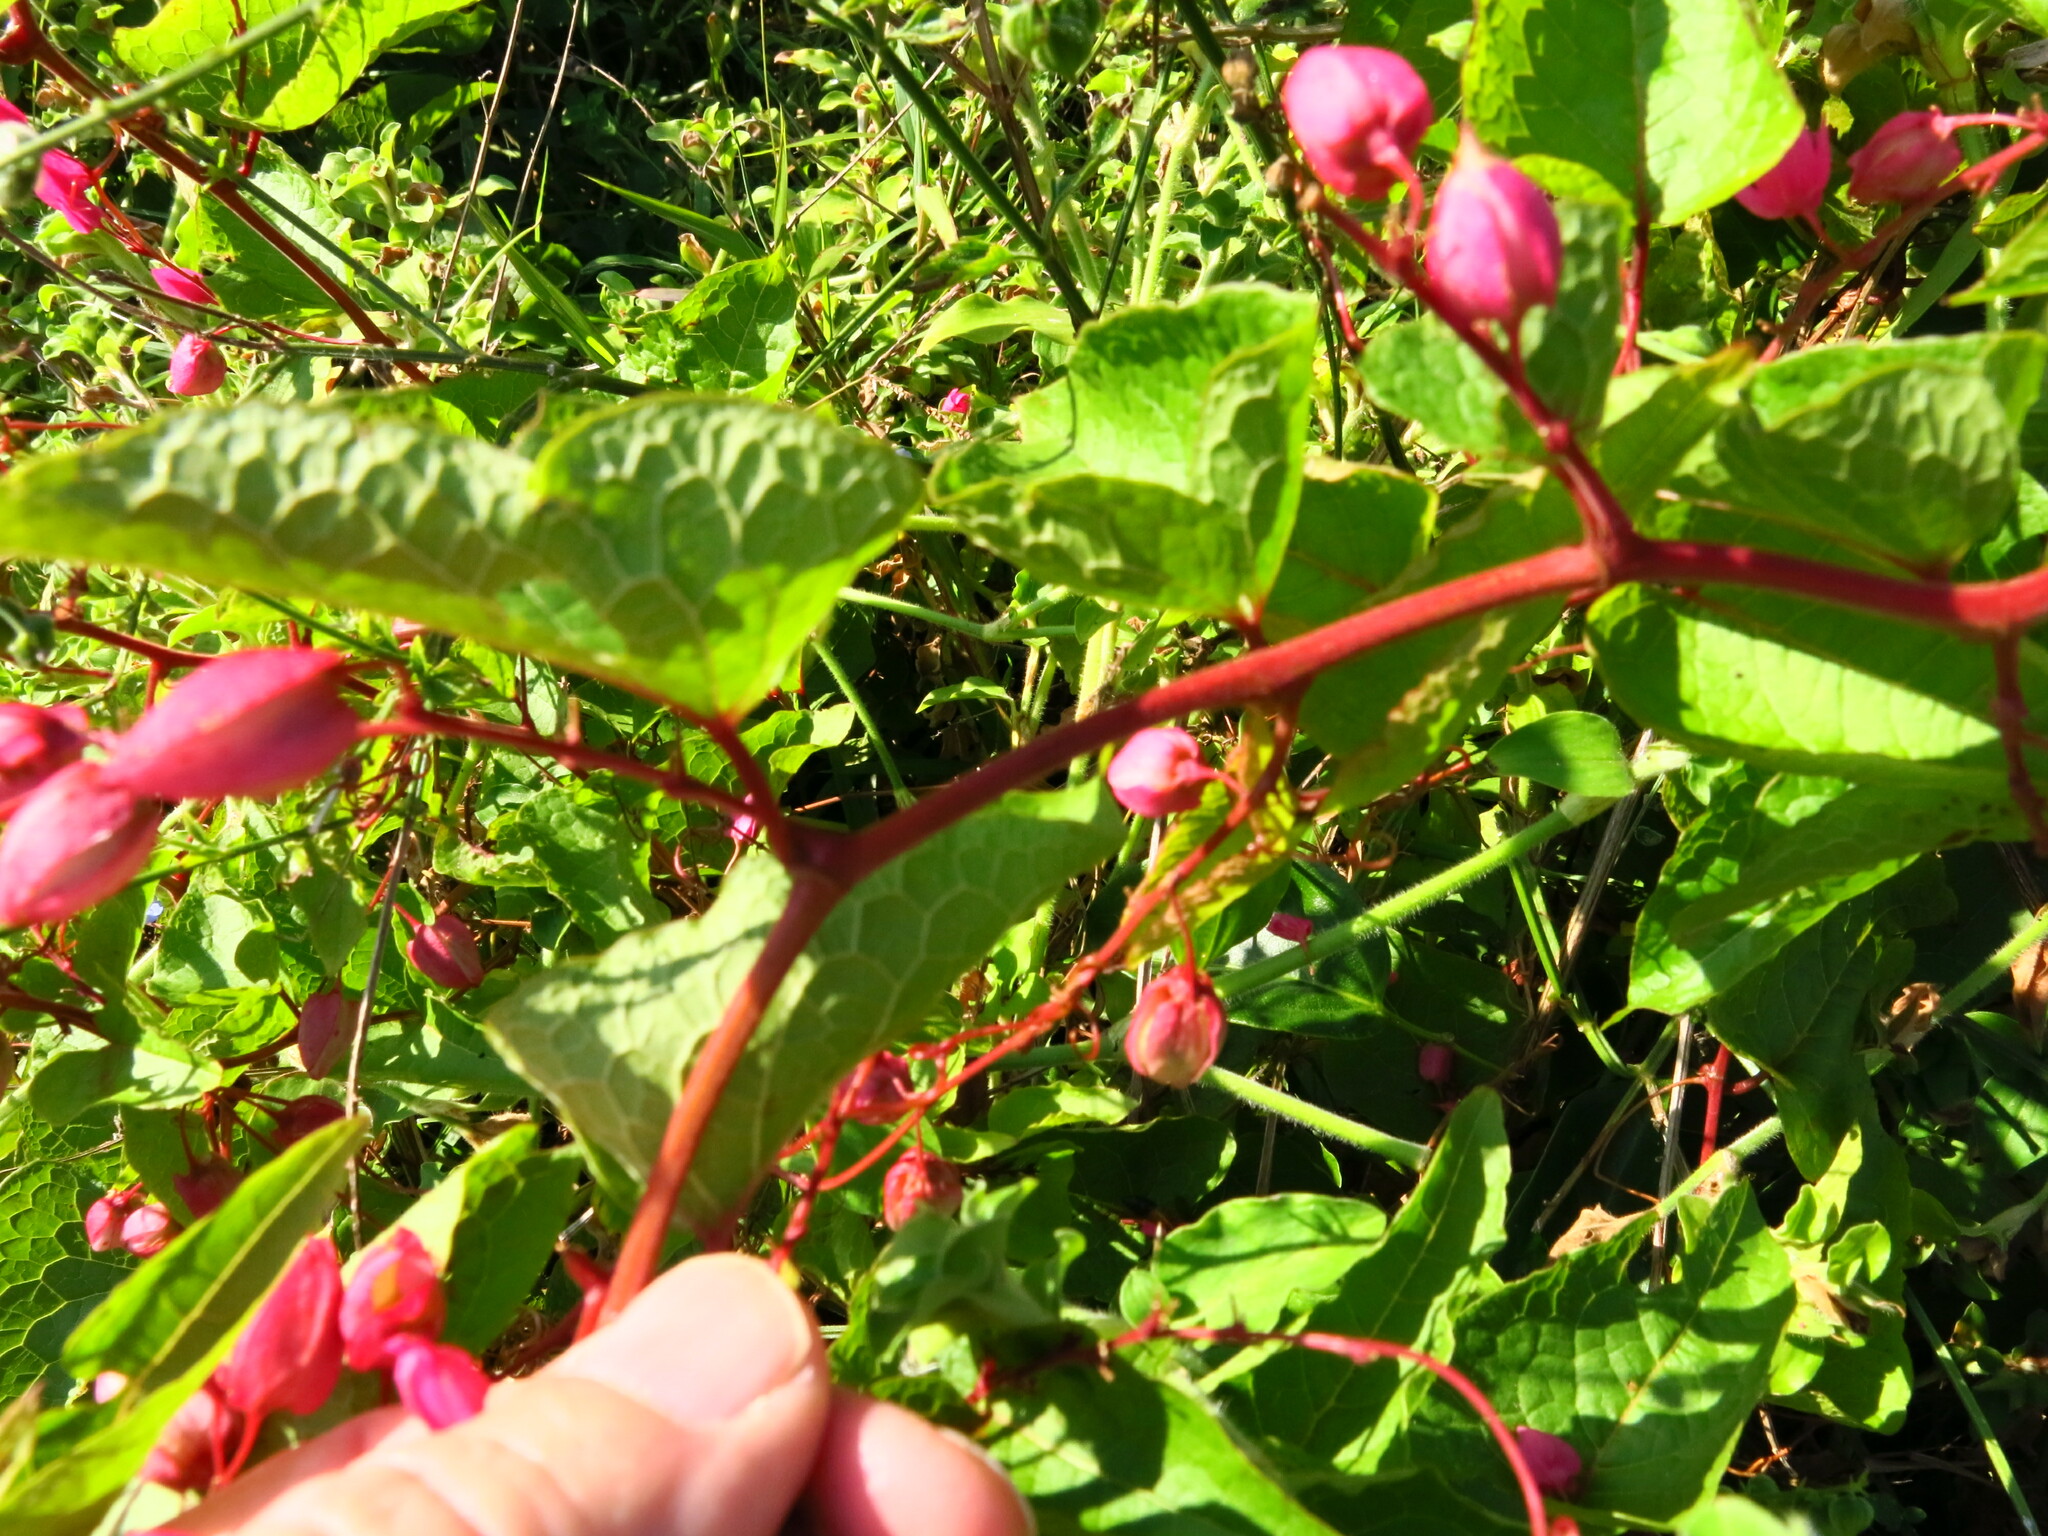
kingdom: Plantae
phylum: Tracheophyta
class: Magnoliopsida
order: Caryophyllales
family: Polygonaceae
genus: Antigonon
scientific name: Antigonon leptopus
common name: Coral vine
